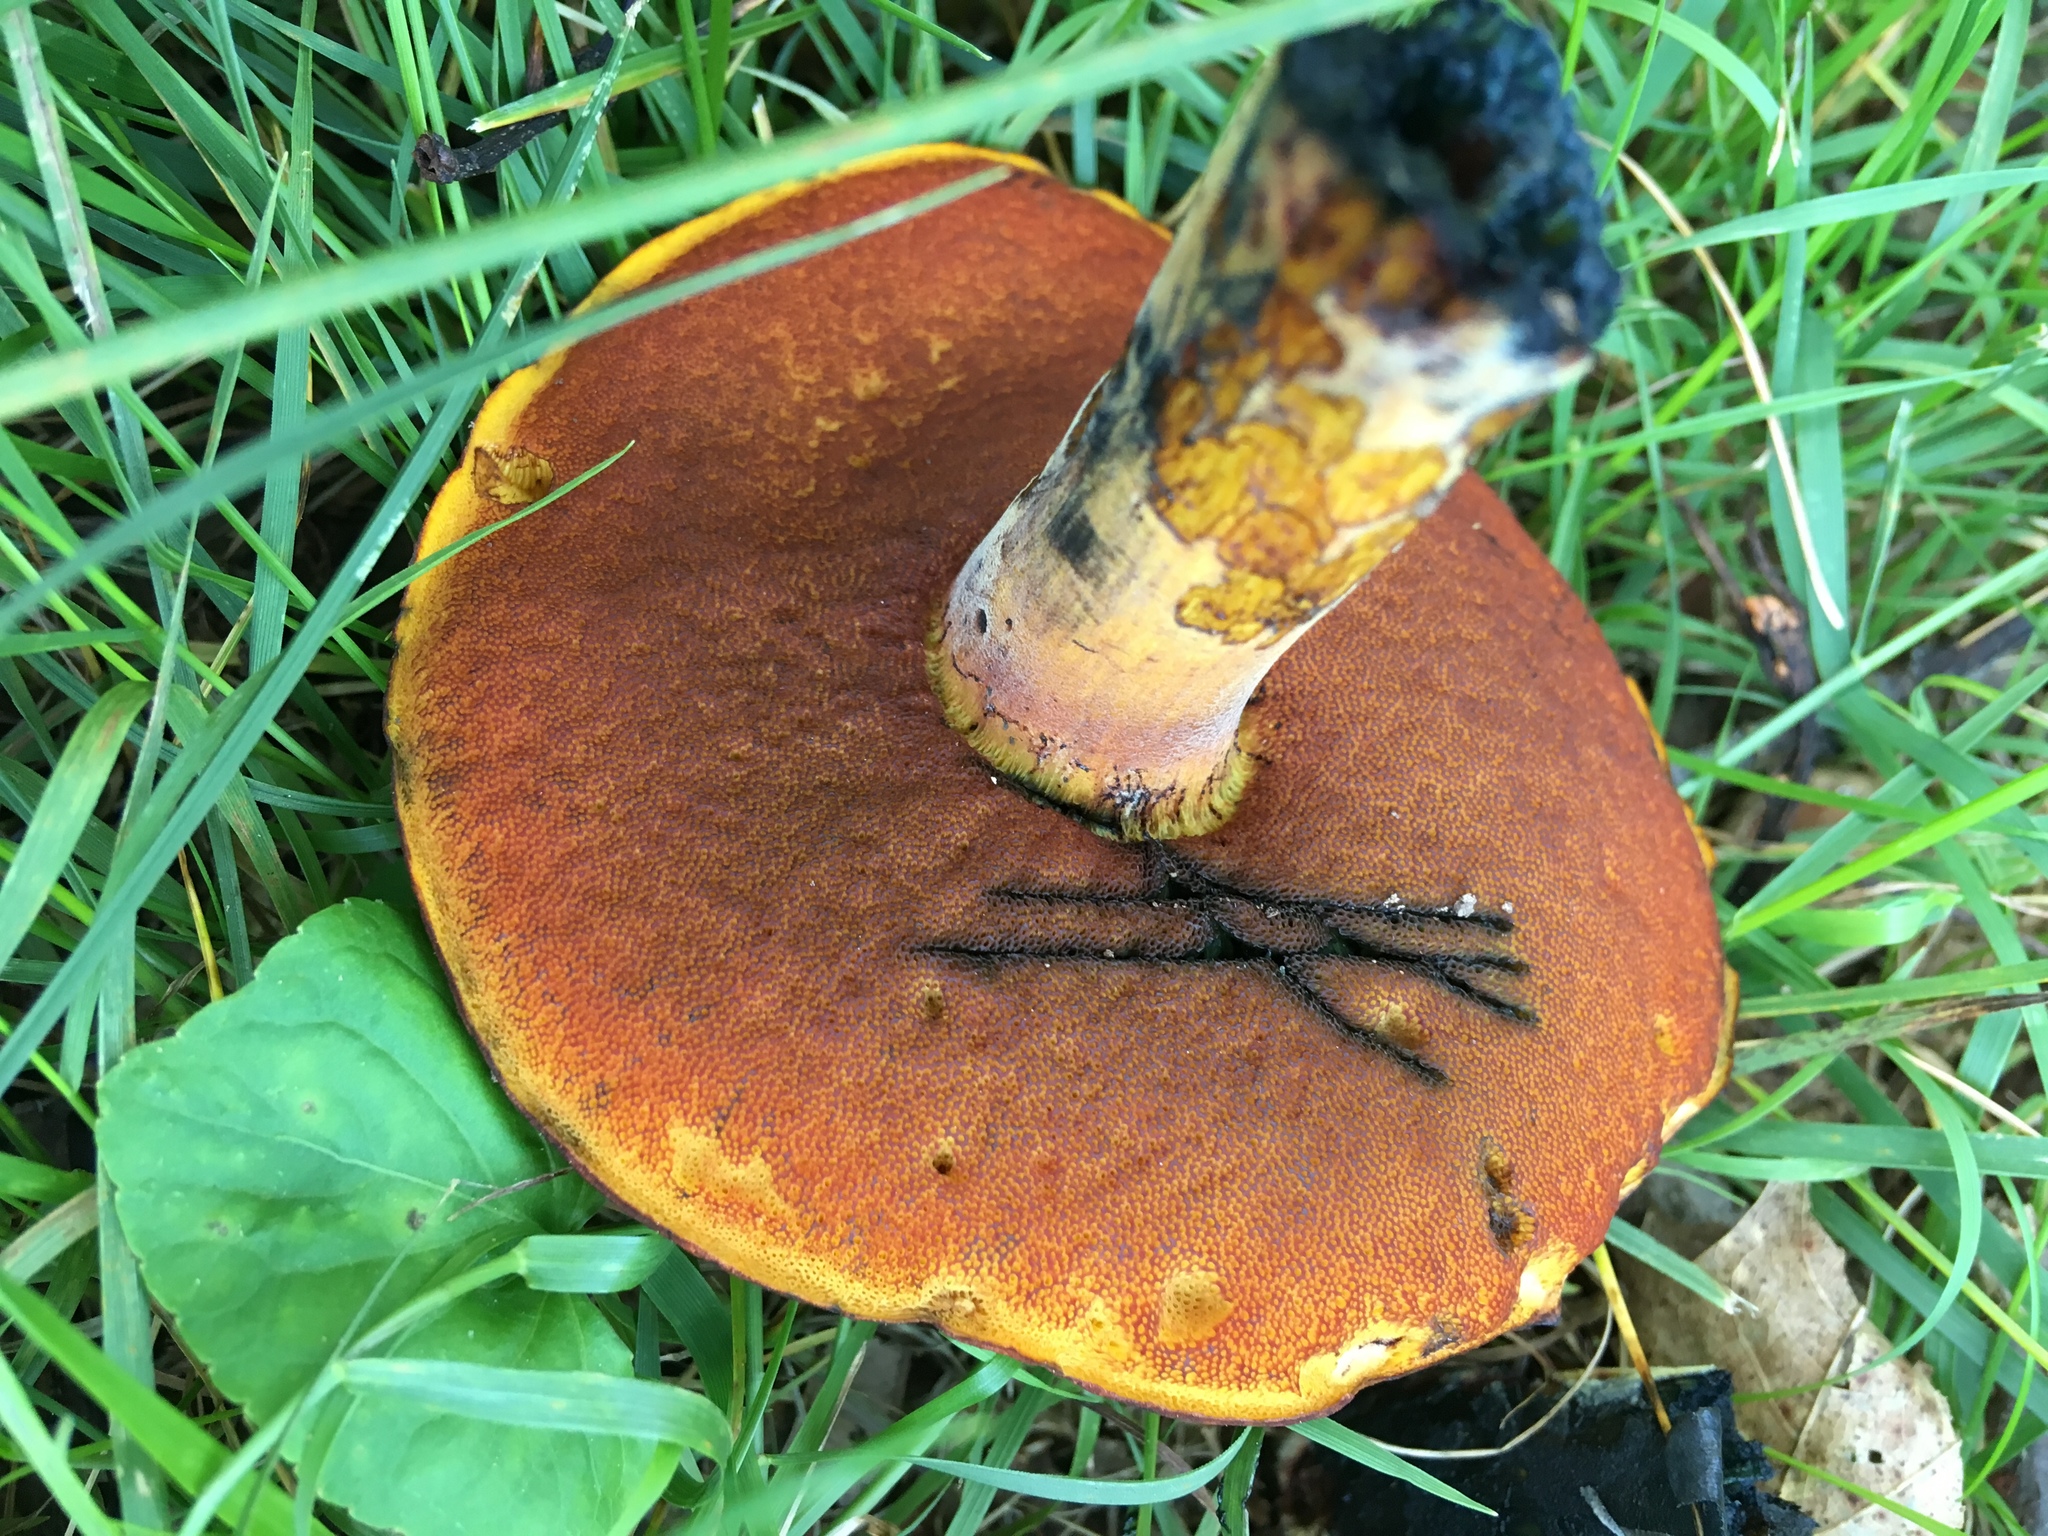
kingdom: Fungi
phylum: Basidiomycota
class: Agaricomycetes
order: Boletales
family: Boletaceae
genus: Boletus
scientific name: Boletus subvelutipes
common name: Red-mouth bolete
